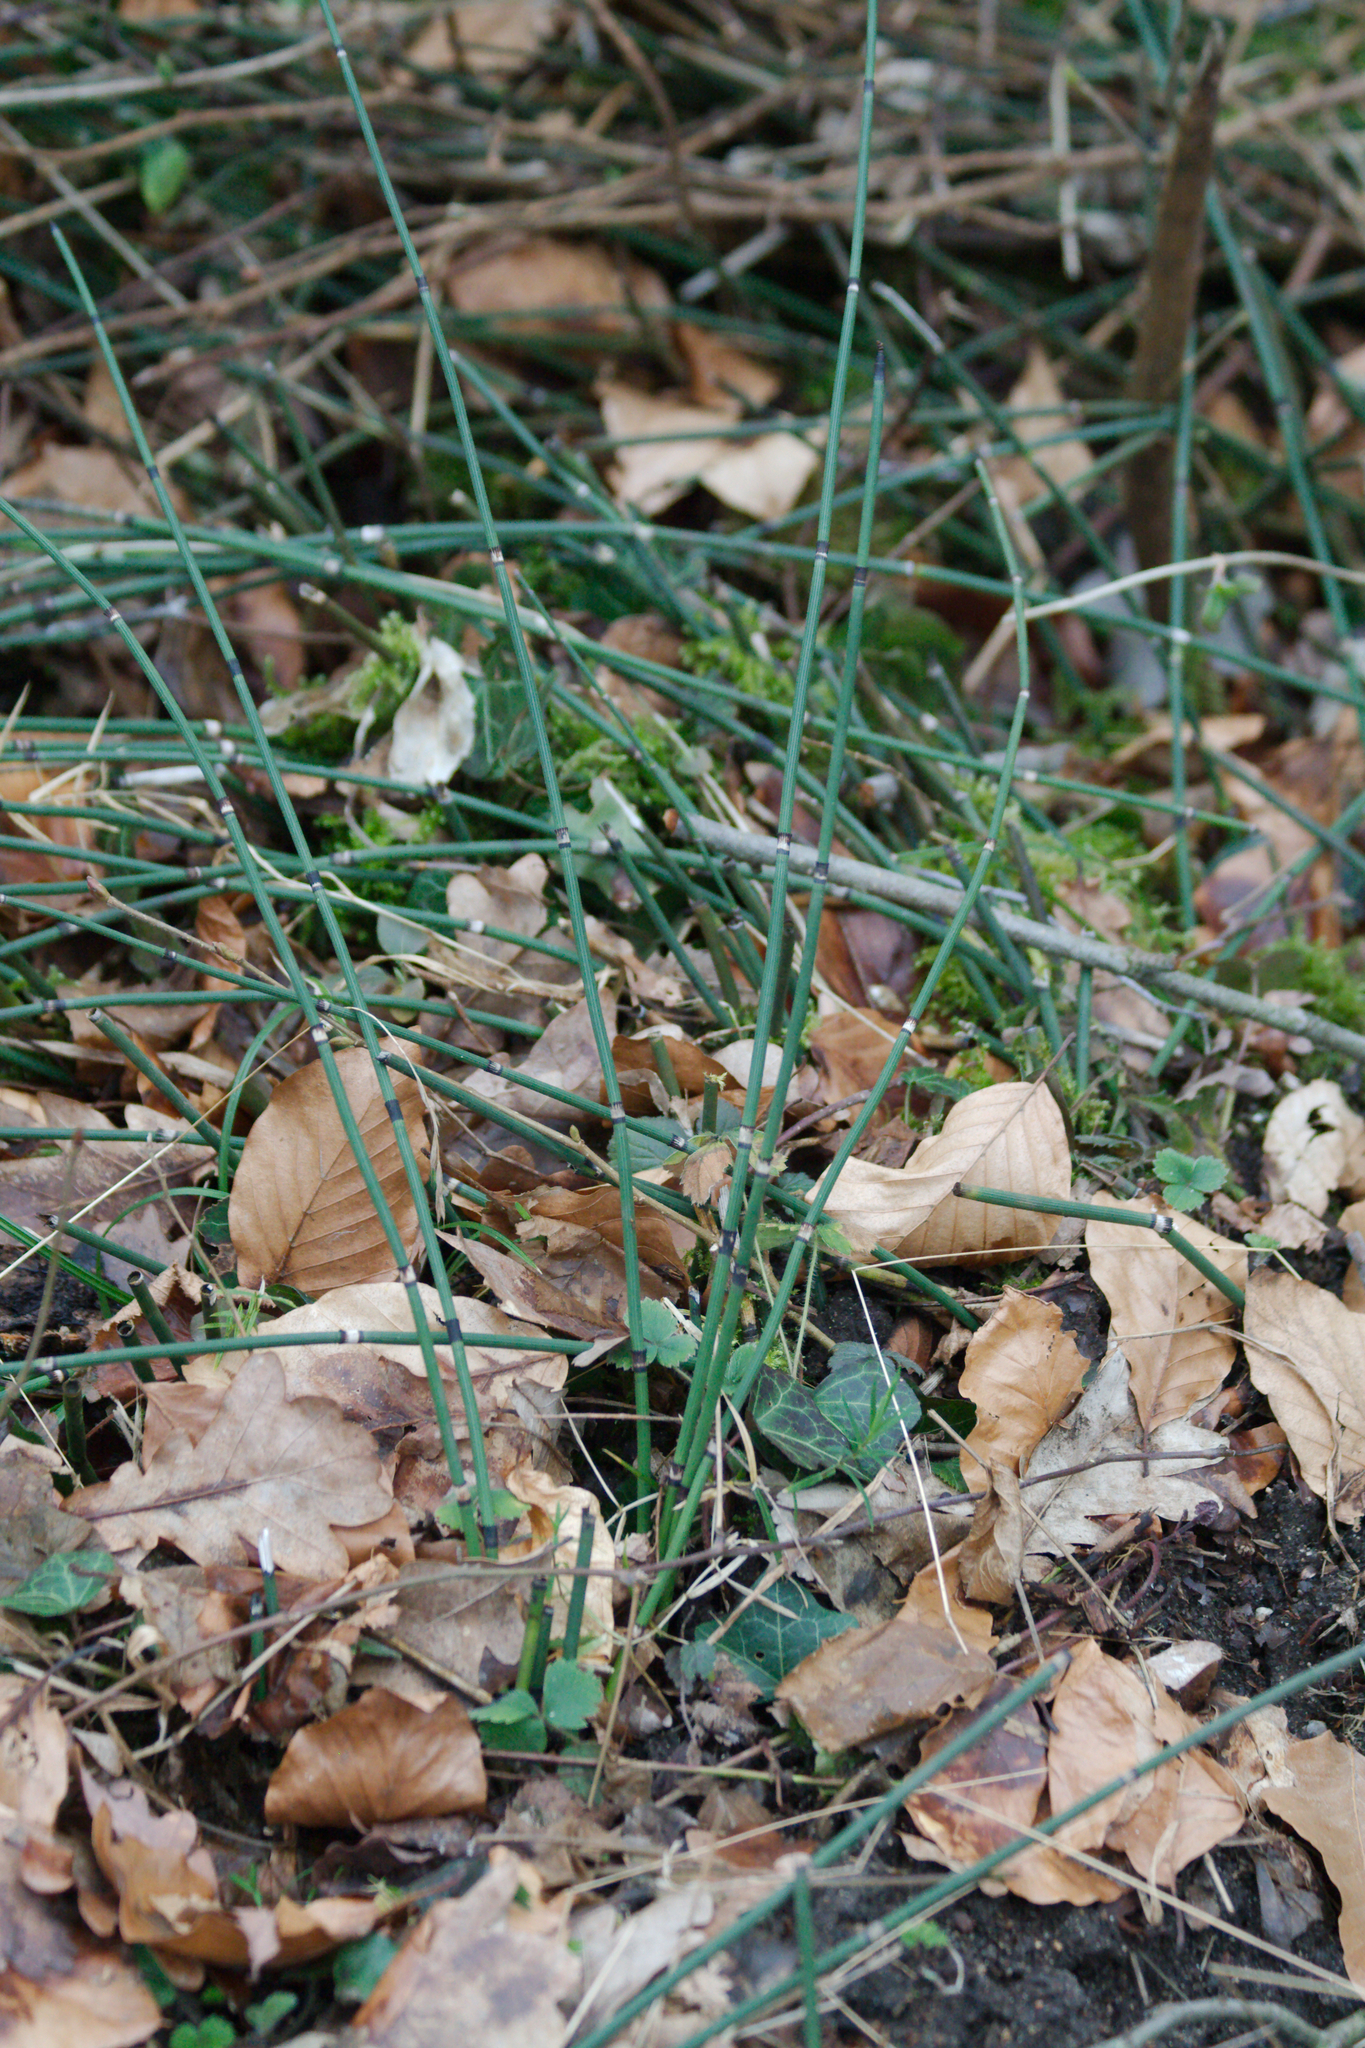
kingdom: Plantae
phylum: Tracheophyta
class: Polypodiopsida
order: Equisetales
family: Equisetaceae
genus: Equisetum
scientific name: Equisetum hyemale
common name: Rough horsetail
